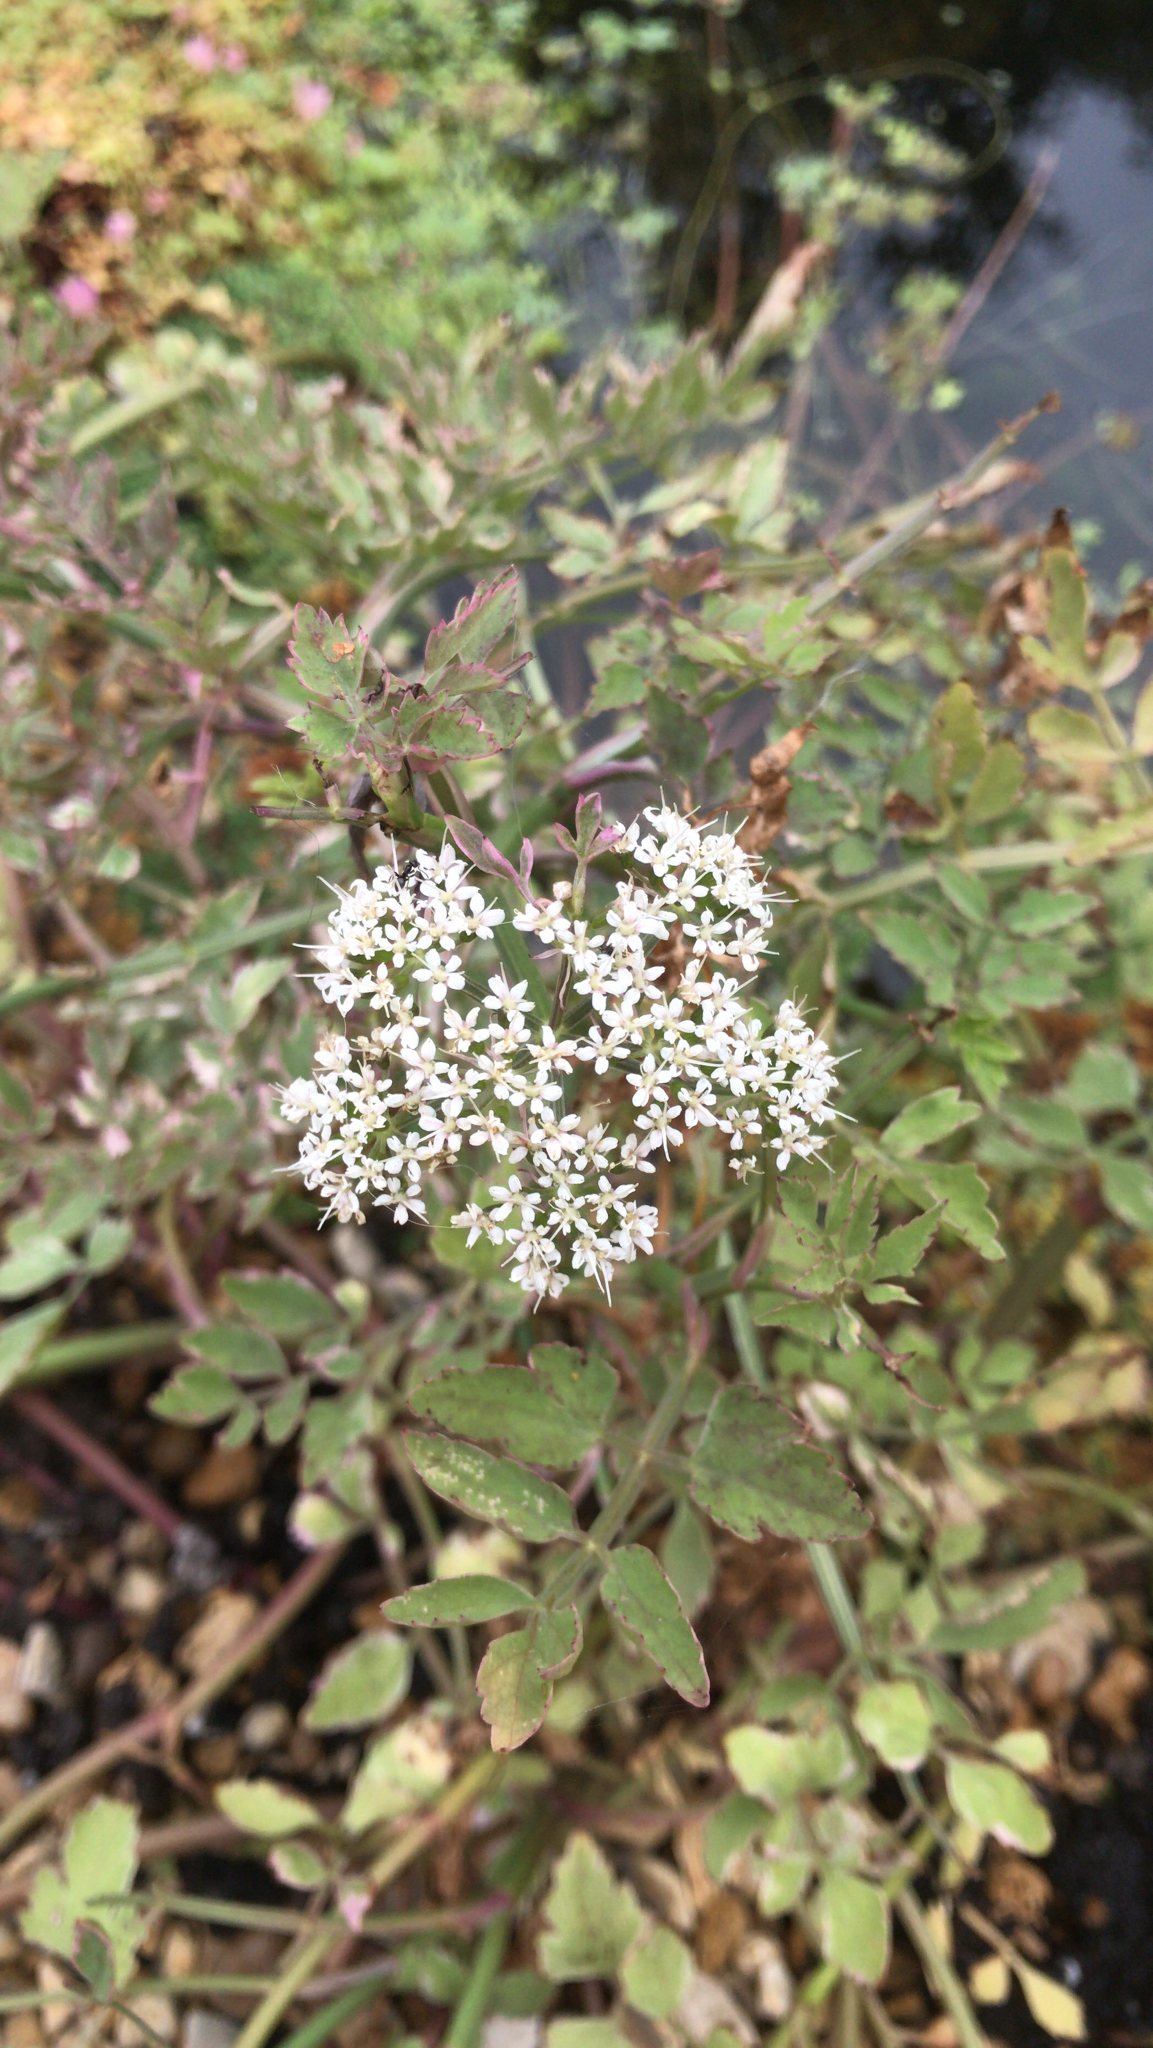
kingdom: Plantae
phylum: Tracheophyta
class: Magnoliopsida
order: Apiales
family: Apiaceae
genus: Oenanthe
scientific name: Oenanthe javanica
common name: Java water-dropwort
